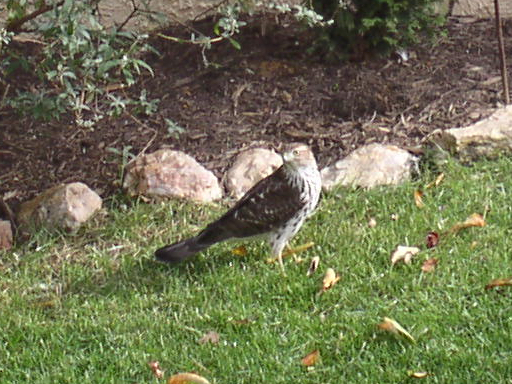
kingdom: Animalia
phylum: Chordata
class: Aves
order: Accipitriformes
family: Accipitridae
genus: Accipiter
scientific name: Accipiter cooperii
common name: Cooper's hawk
